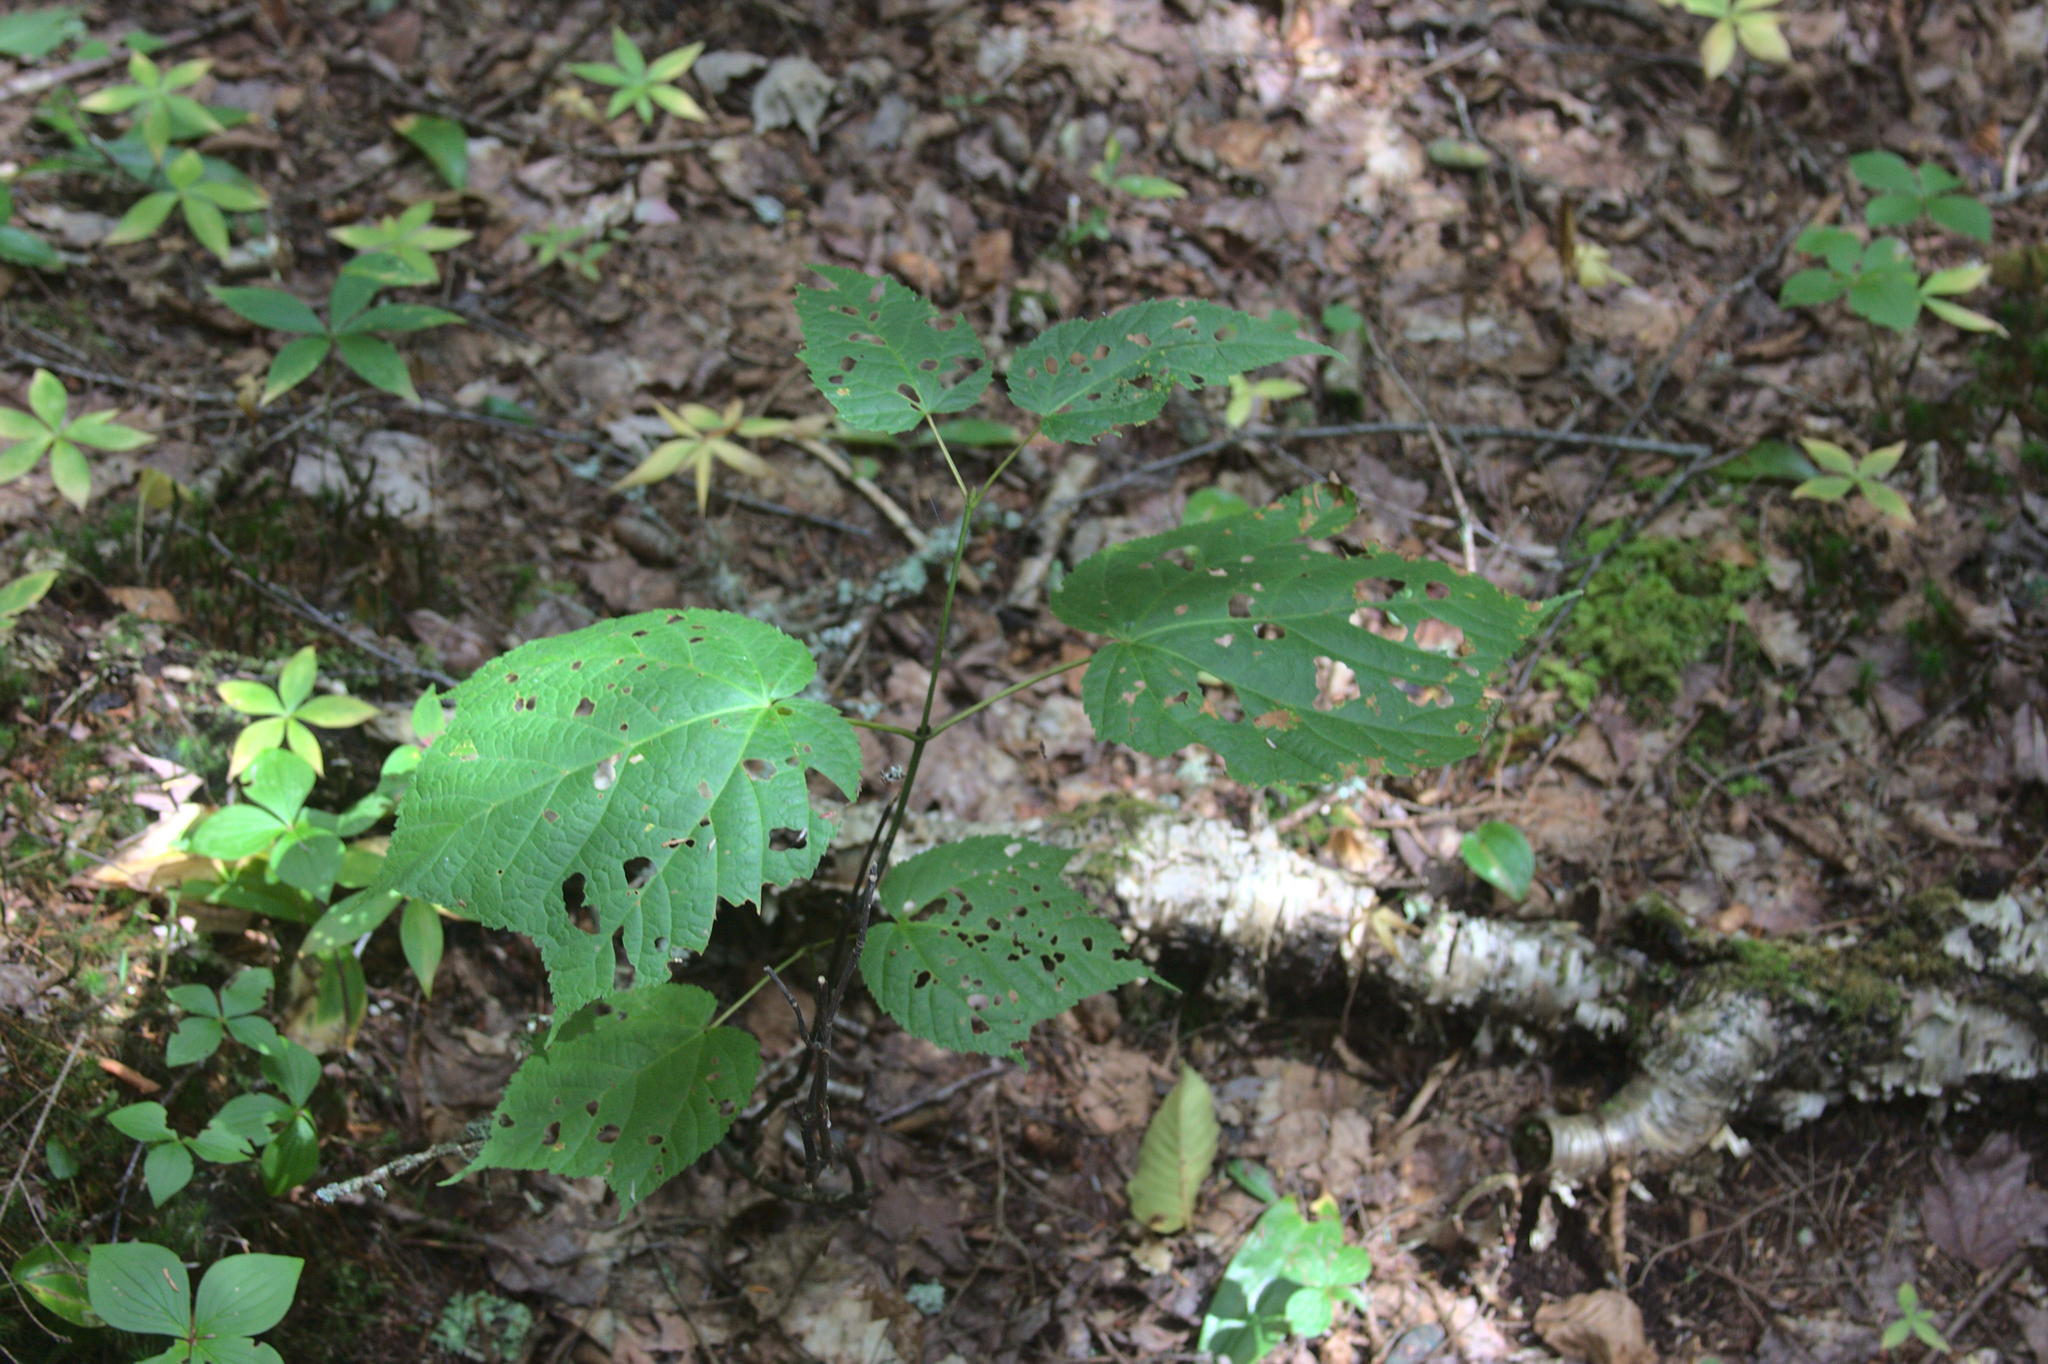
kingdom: Plantae
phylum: Tracheophyta
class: Magnoliopsida
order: Sapindales
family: Sapindaceae
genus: Acer
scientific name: Acer pensylvanicum
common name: Moosewood
